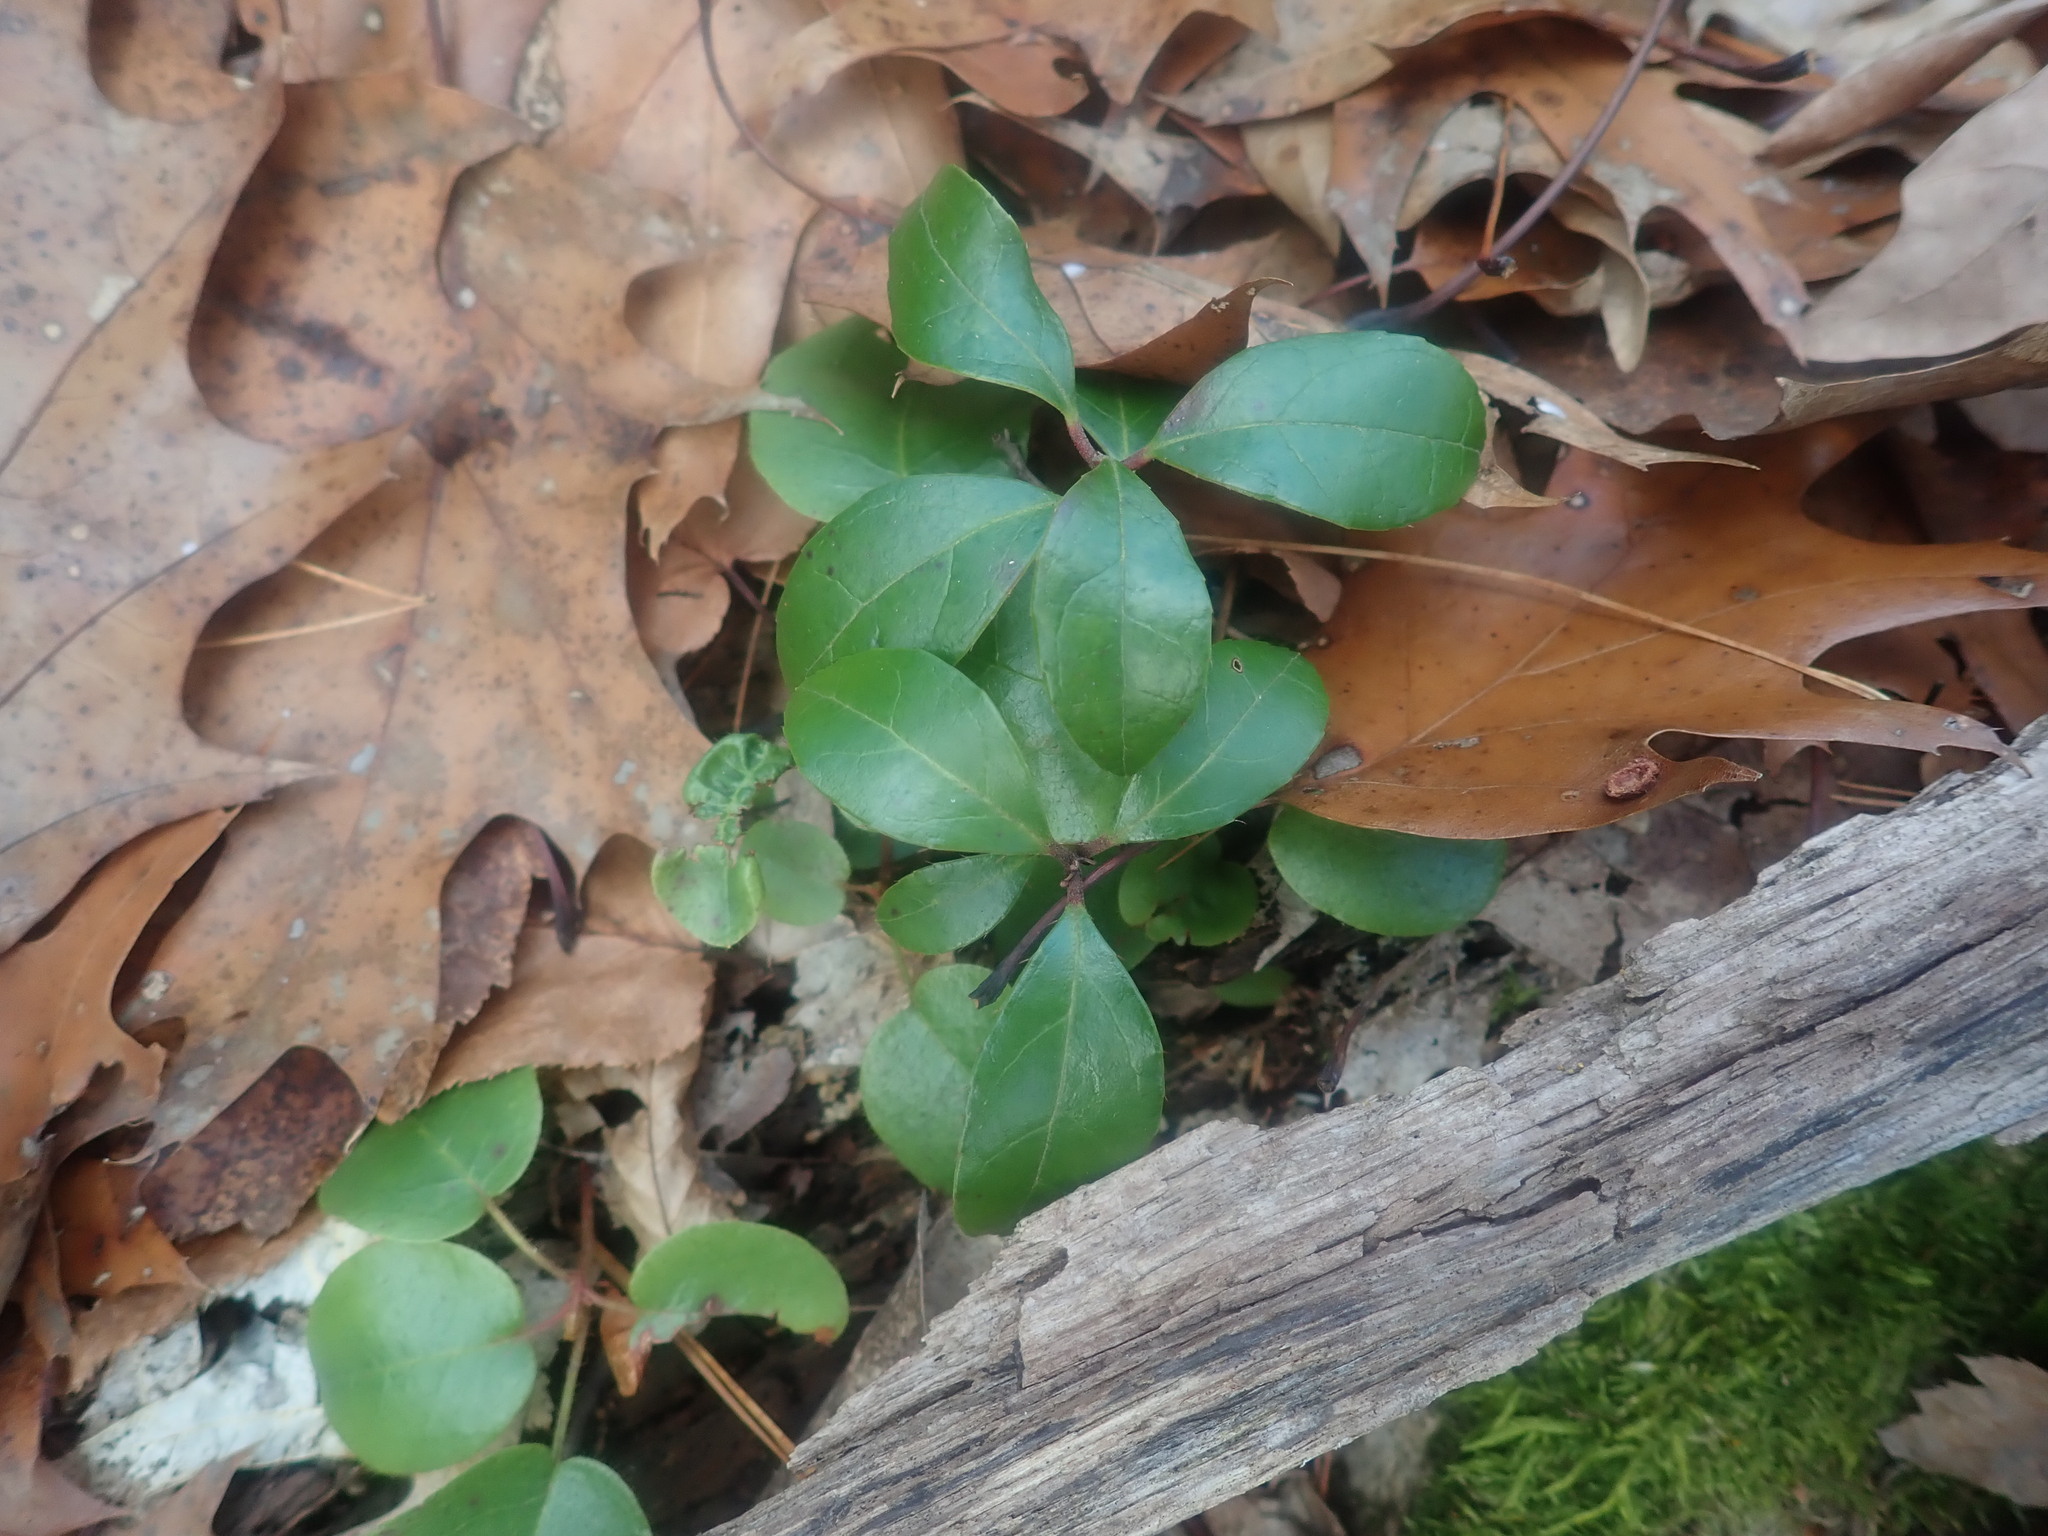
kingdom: Plantae
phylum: Tracheophyta
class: Magnoliopsida
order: Ericales
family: Ericaceae
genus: Gaultheria
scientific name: Gaultheria procumbens
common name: Checkerberry
